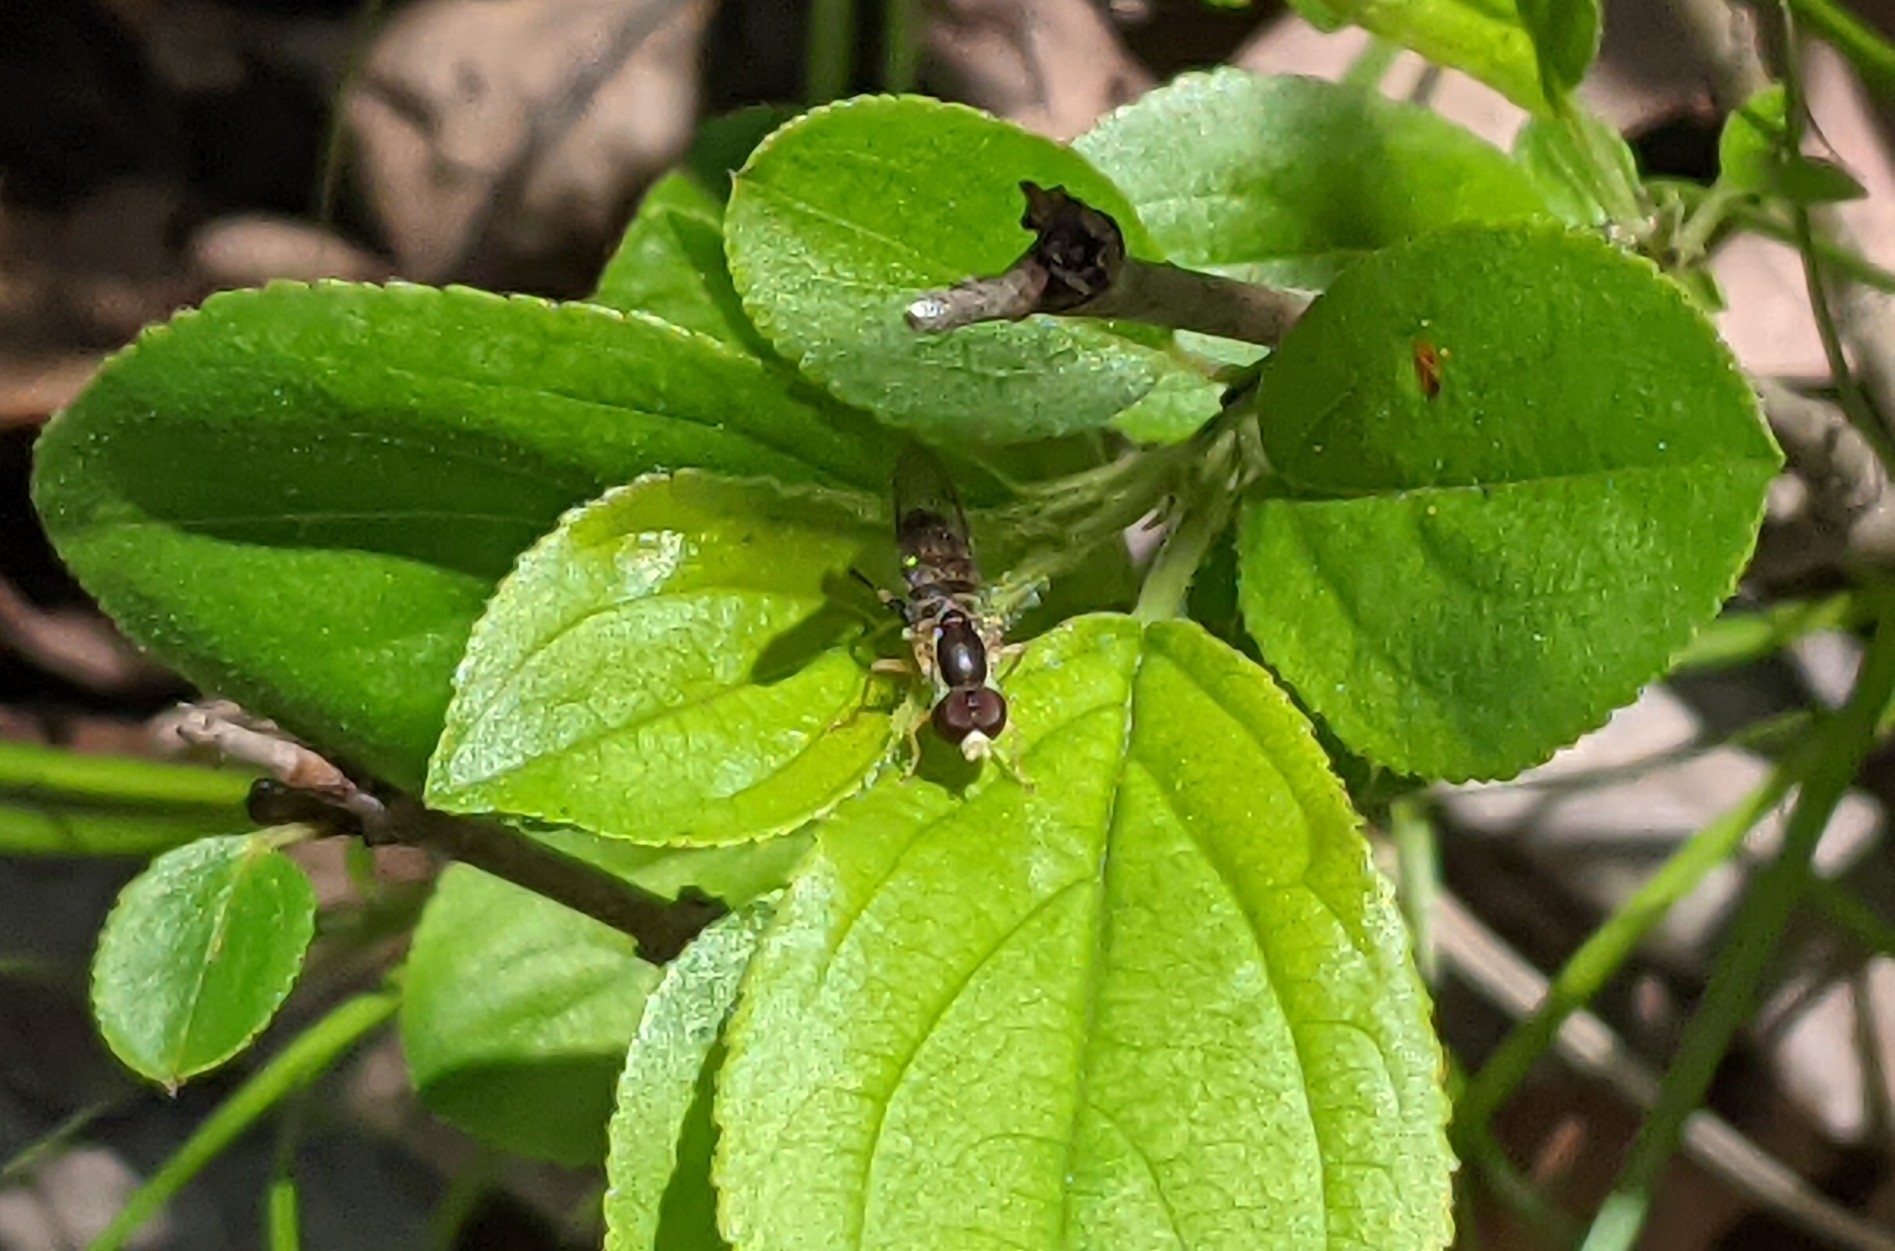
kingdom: Animalia
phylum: Arthropoda
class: Insecta
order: Diptera
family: Syrphidae
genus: Toxomerus
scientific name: Toxomerus geminatus
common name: Eastern calligrapher
